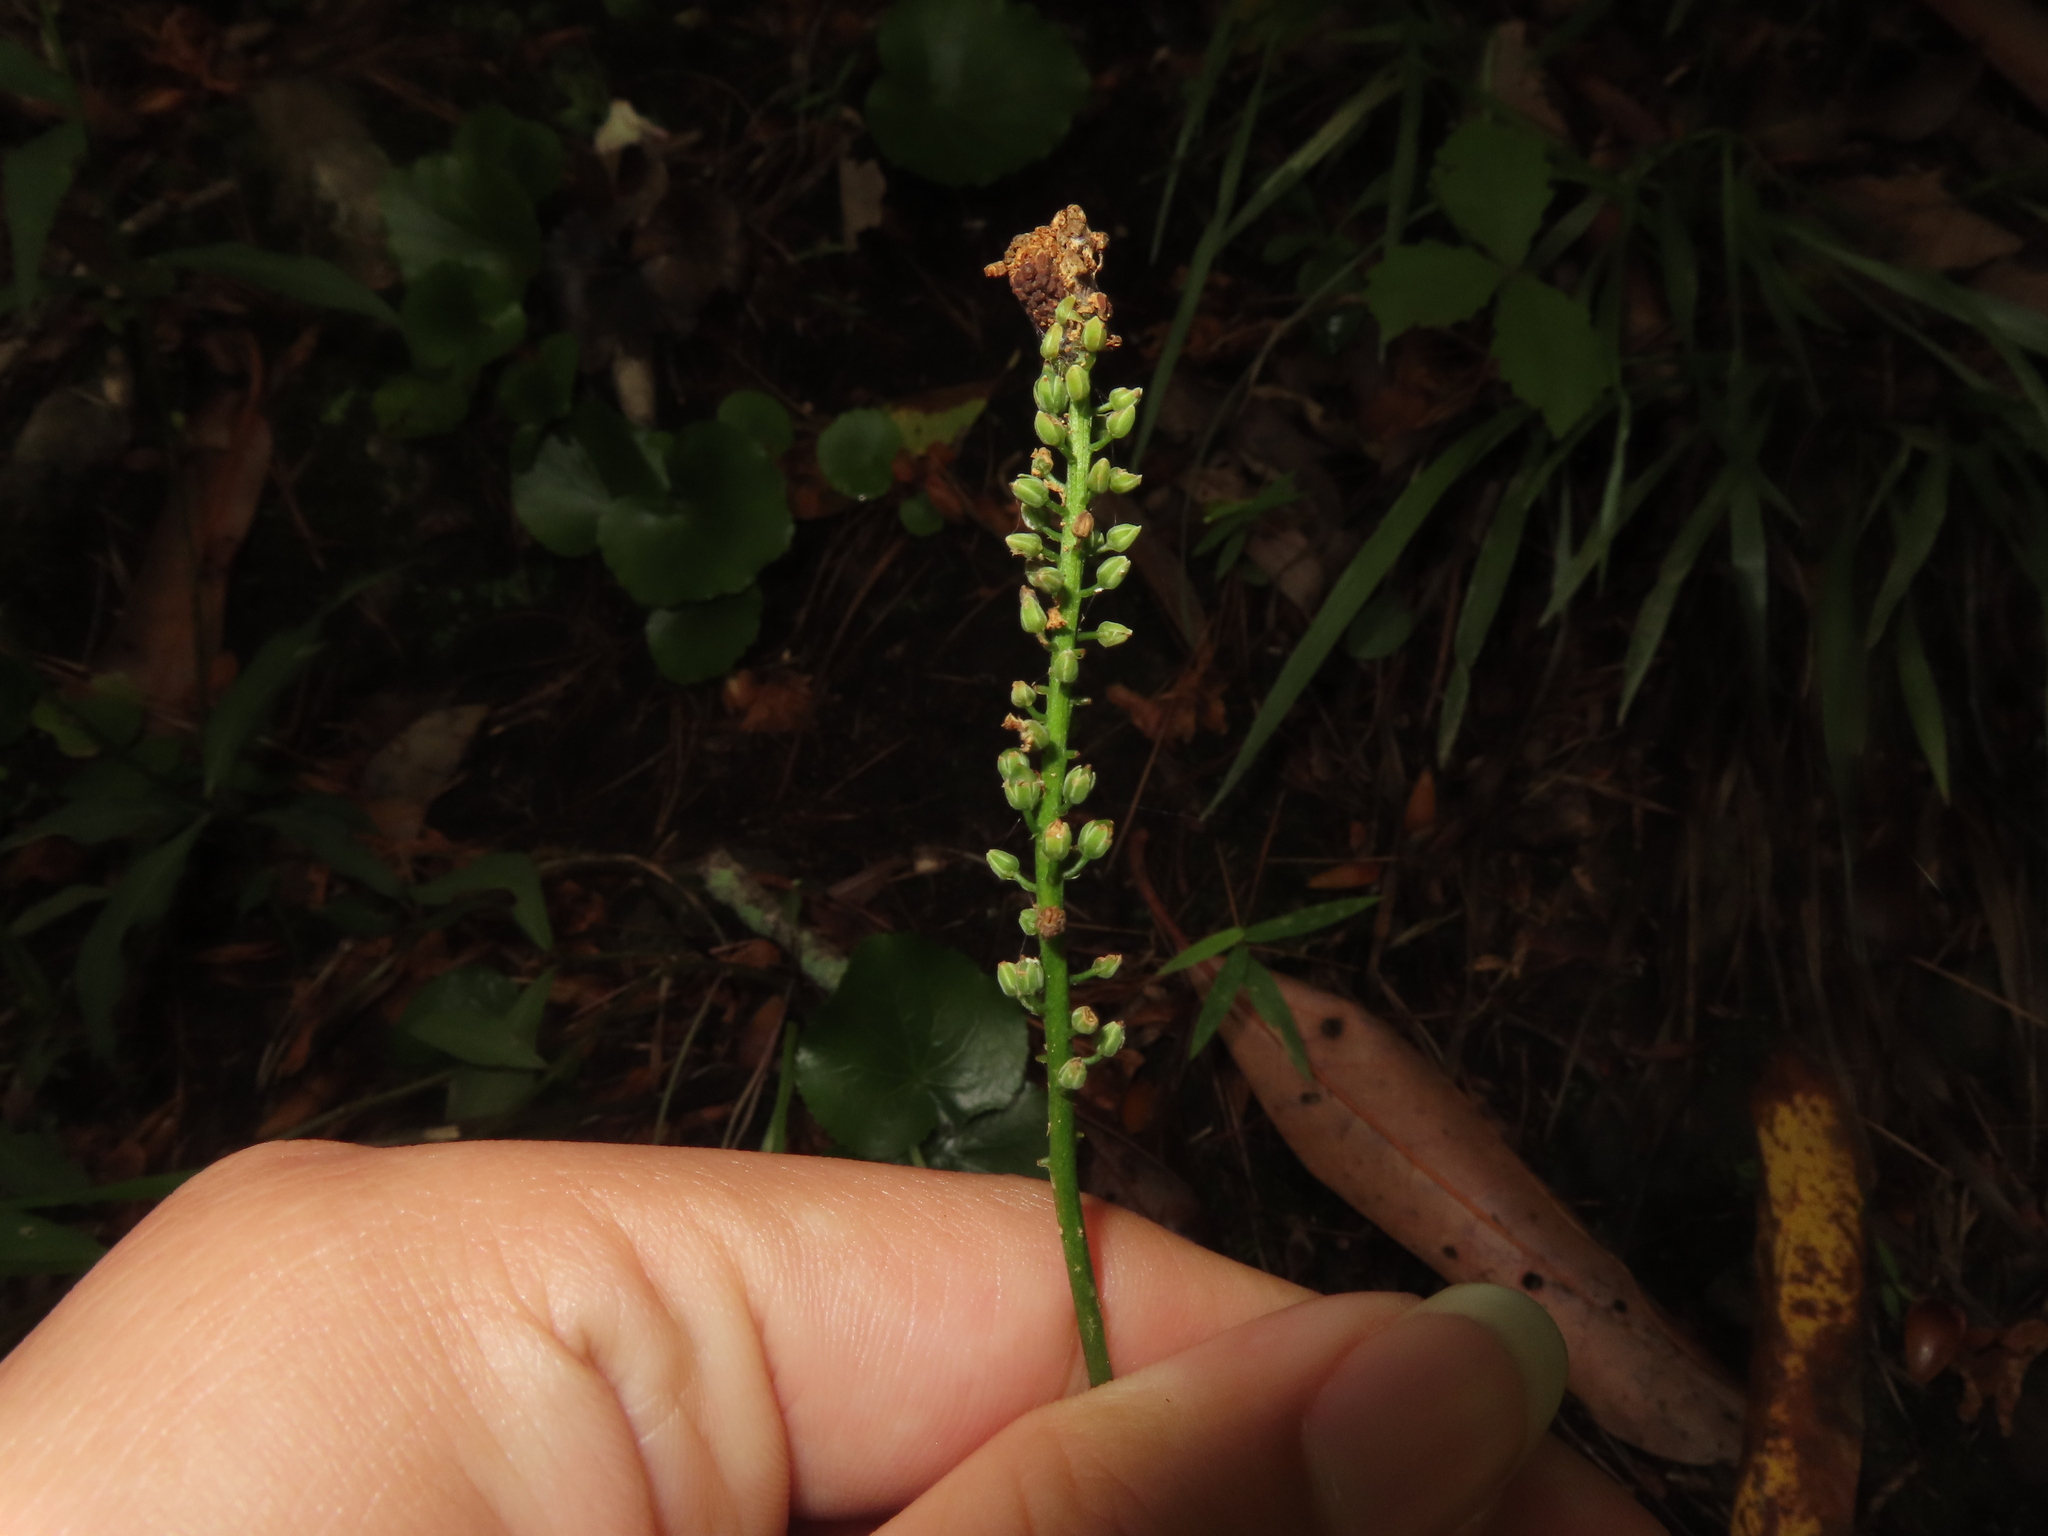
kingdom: Plantae
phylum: Tracheophyta
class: Magnoliopsida
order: Ericales
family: Diapensiaceae
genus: Galax
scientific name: Galax urceolata
